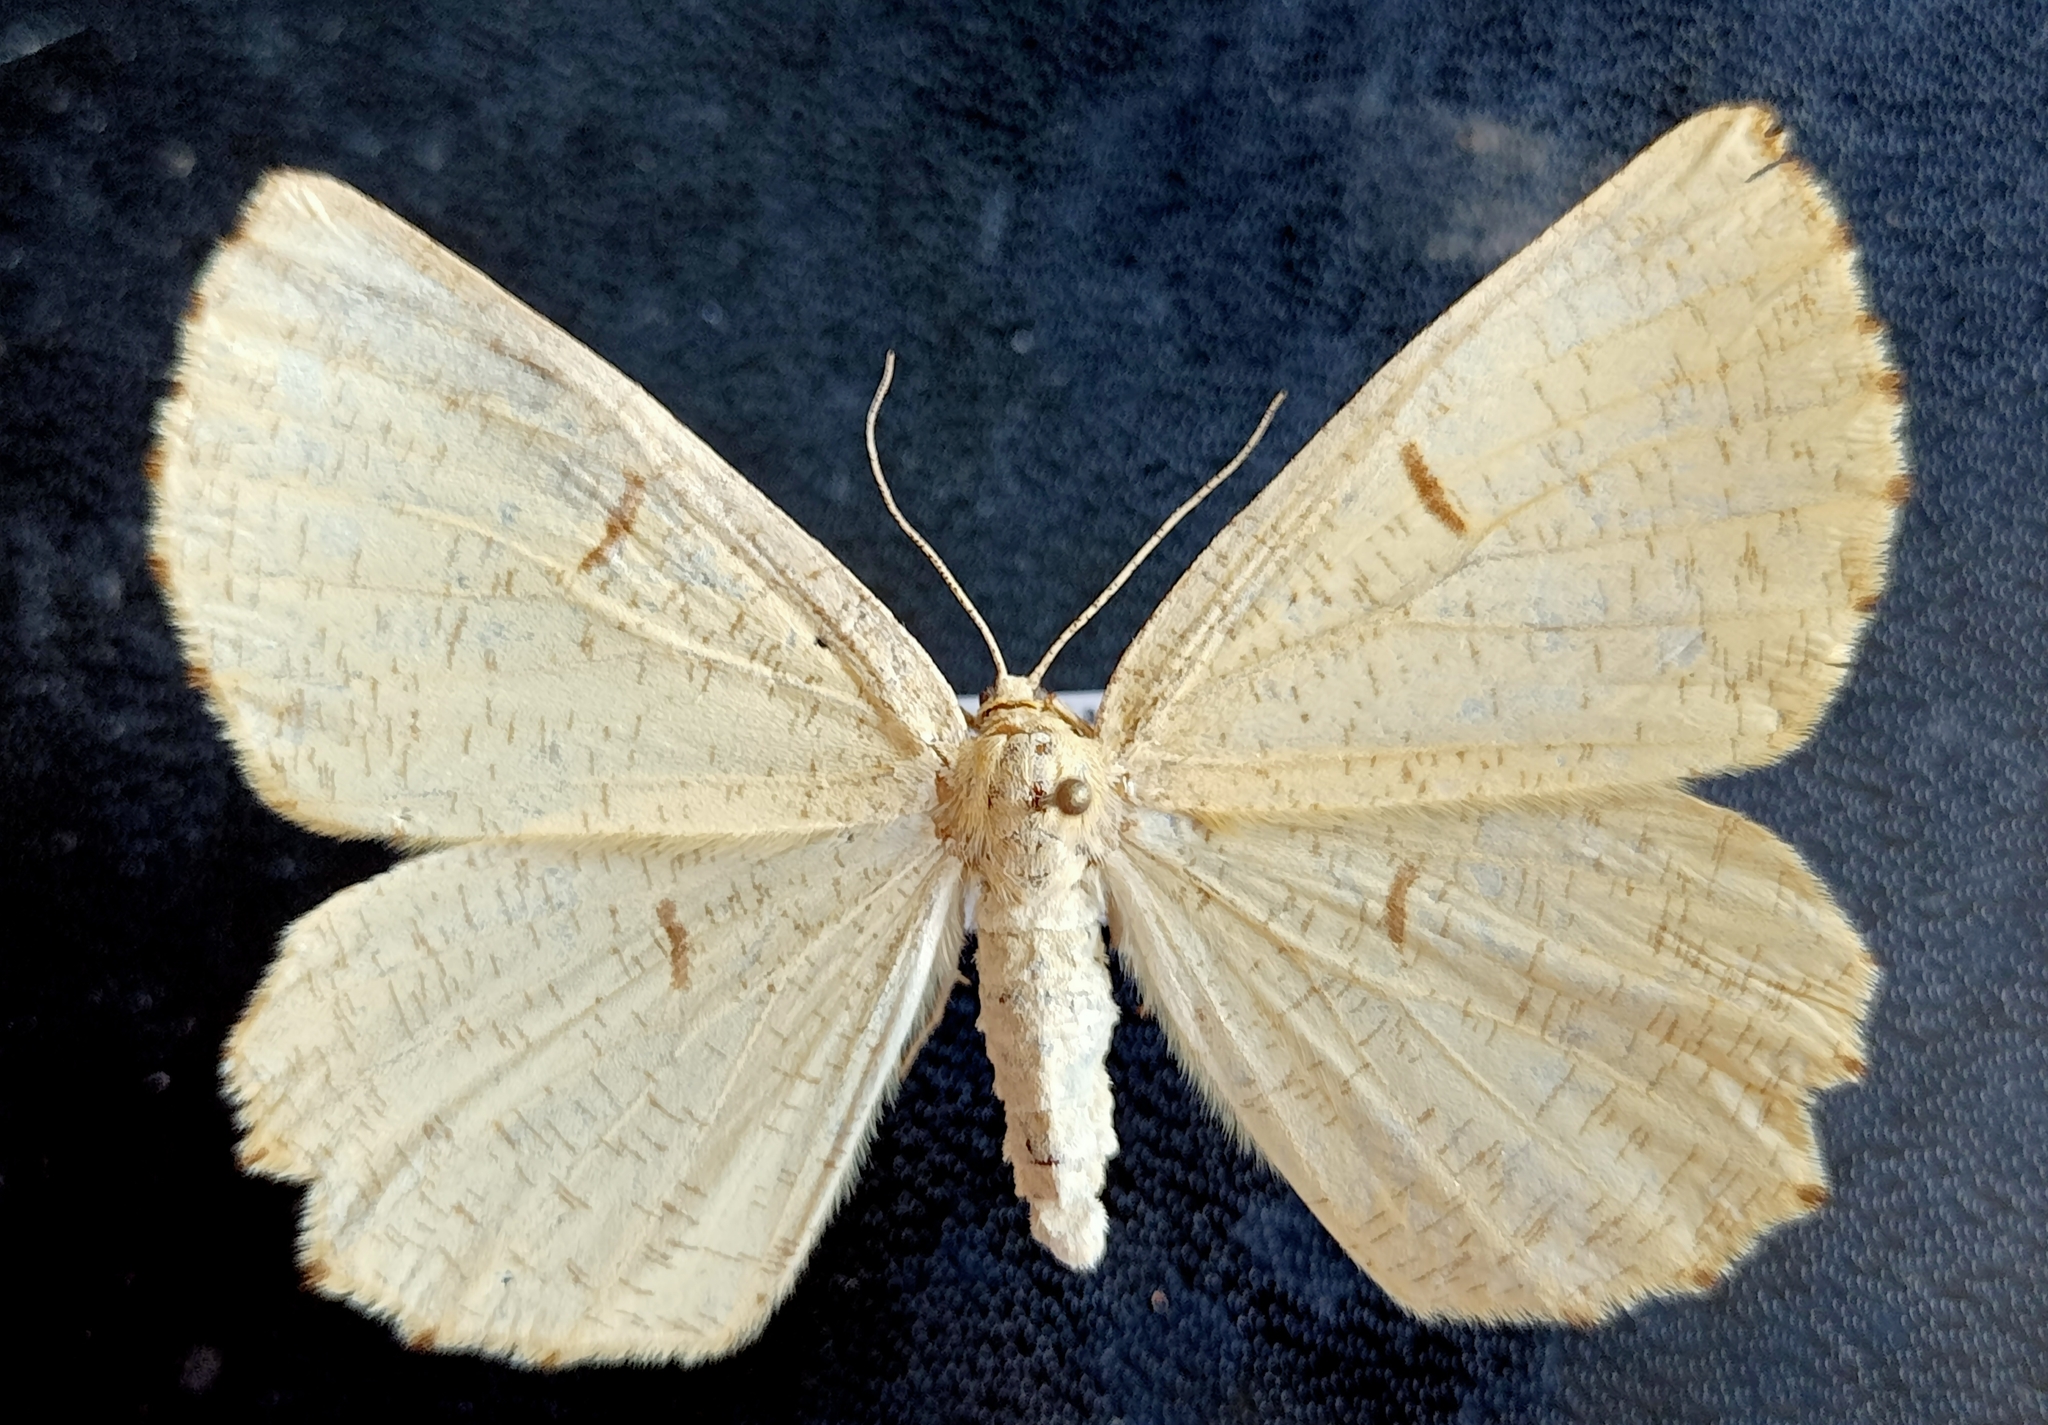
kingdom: Animalia
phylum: Arthropoda
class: Insecta
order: Lepidoptera
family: Geometridae
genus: Angerona
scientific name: Angerona prunaria
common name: Orange moth
